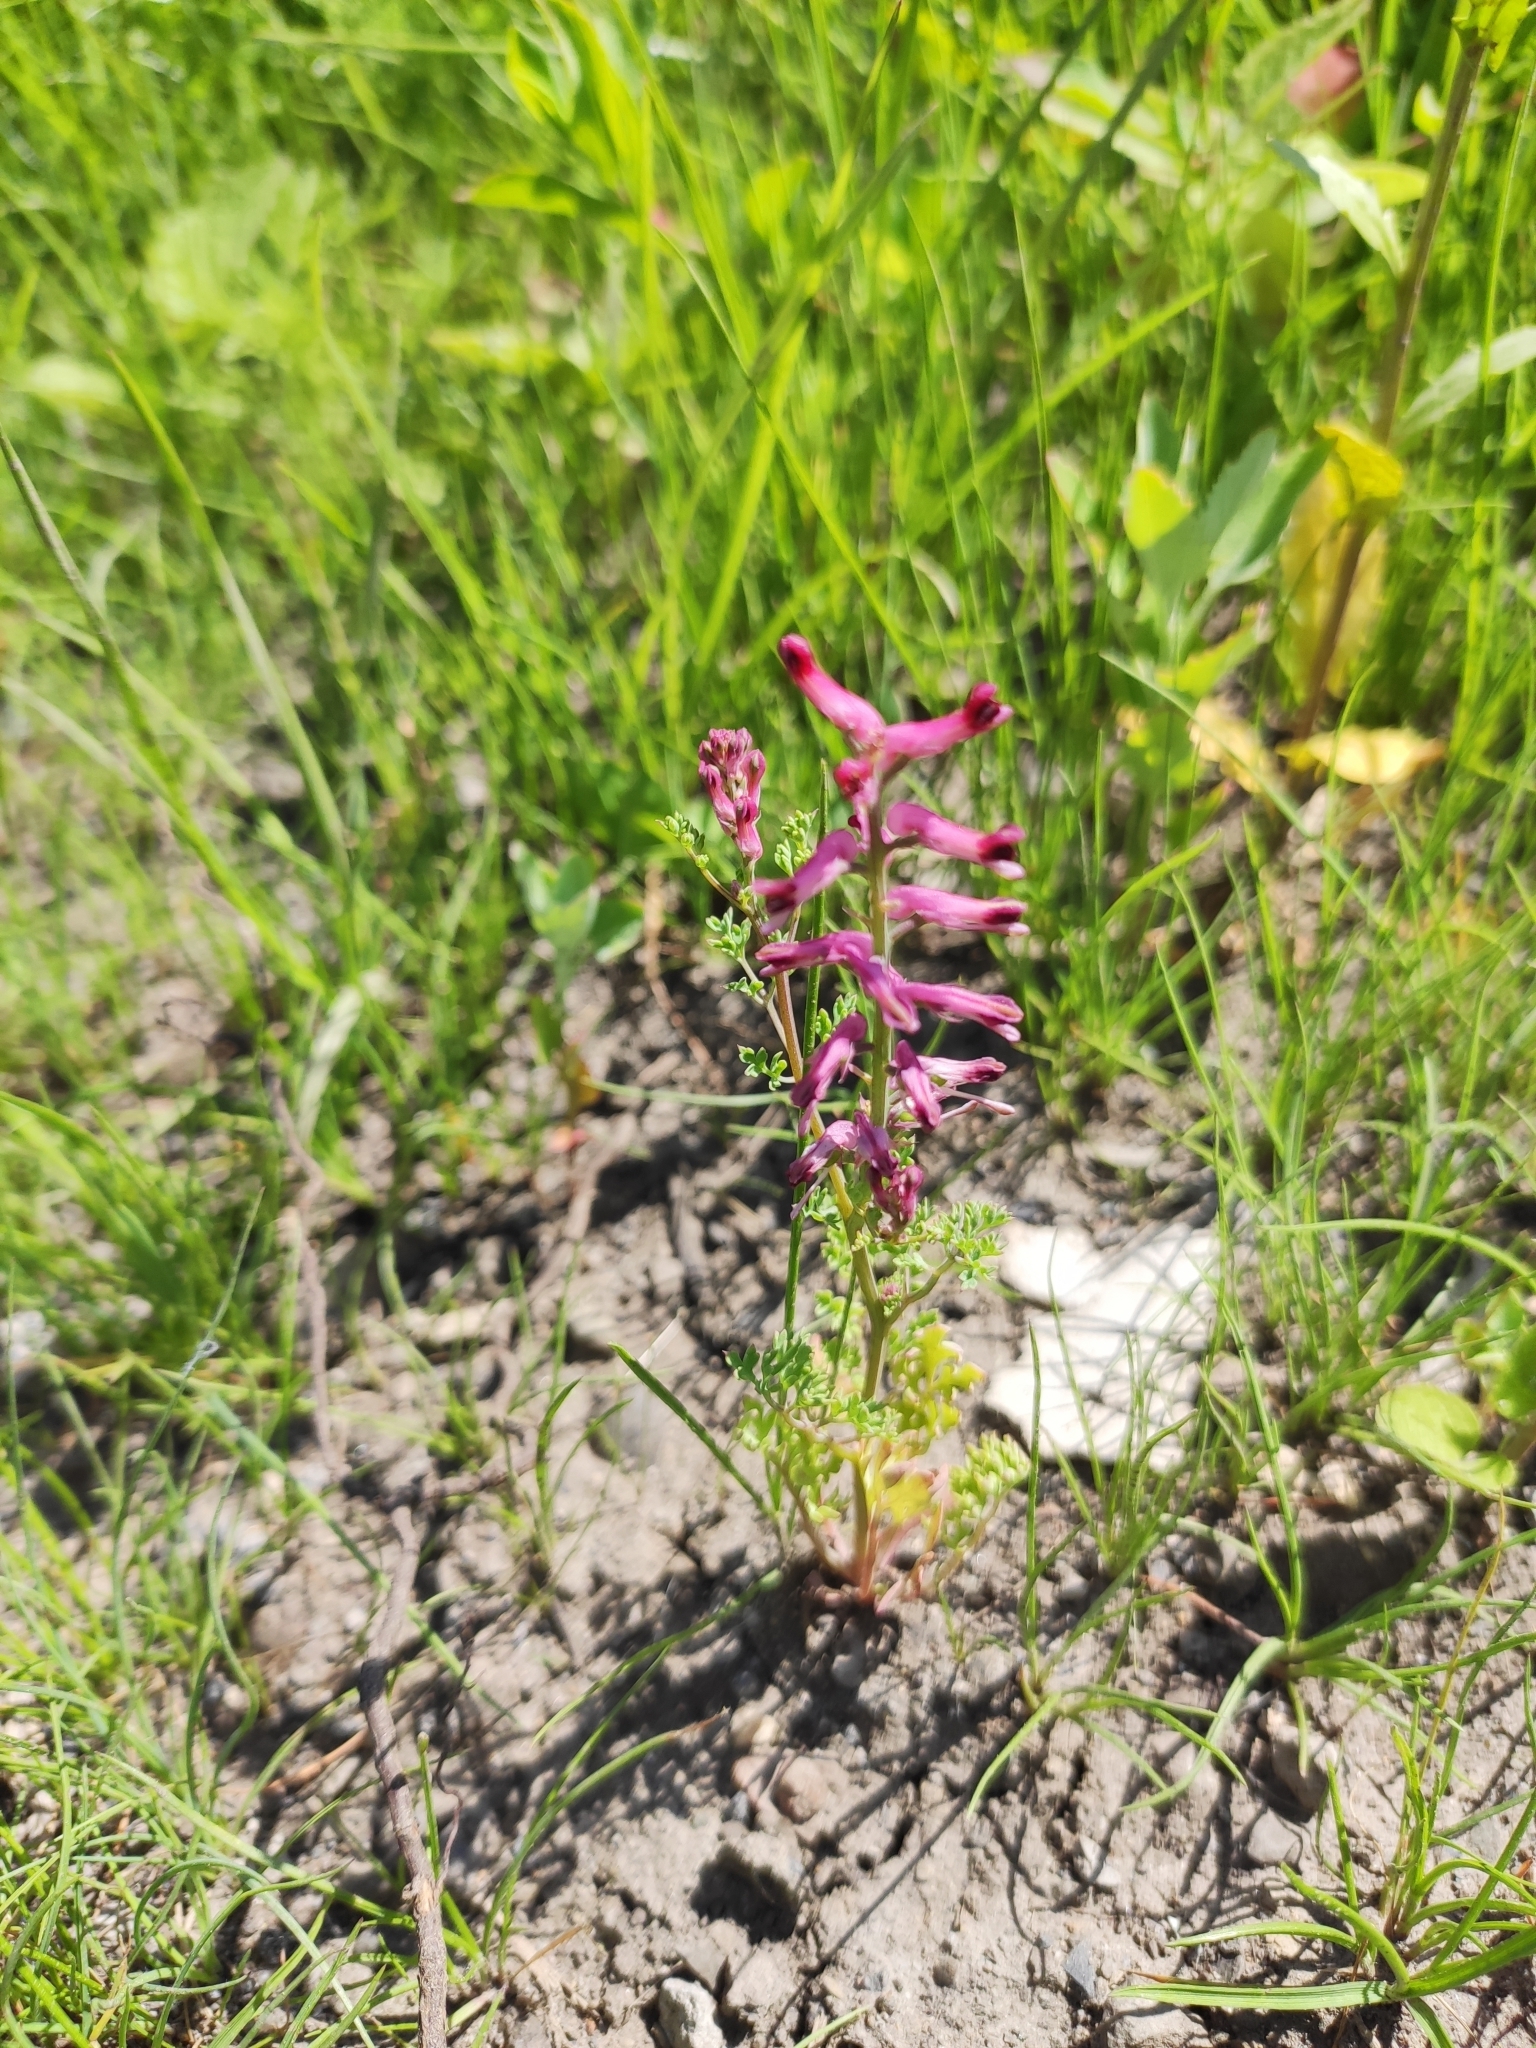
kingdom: Plantae
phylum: Tracheophyta
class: Magnoliopsida
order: Ranunculales
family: Papaveraceae
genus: Fumaria
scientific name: Fumaria officinalis
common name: Common fumitory
